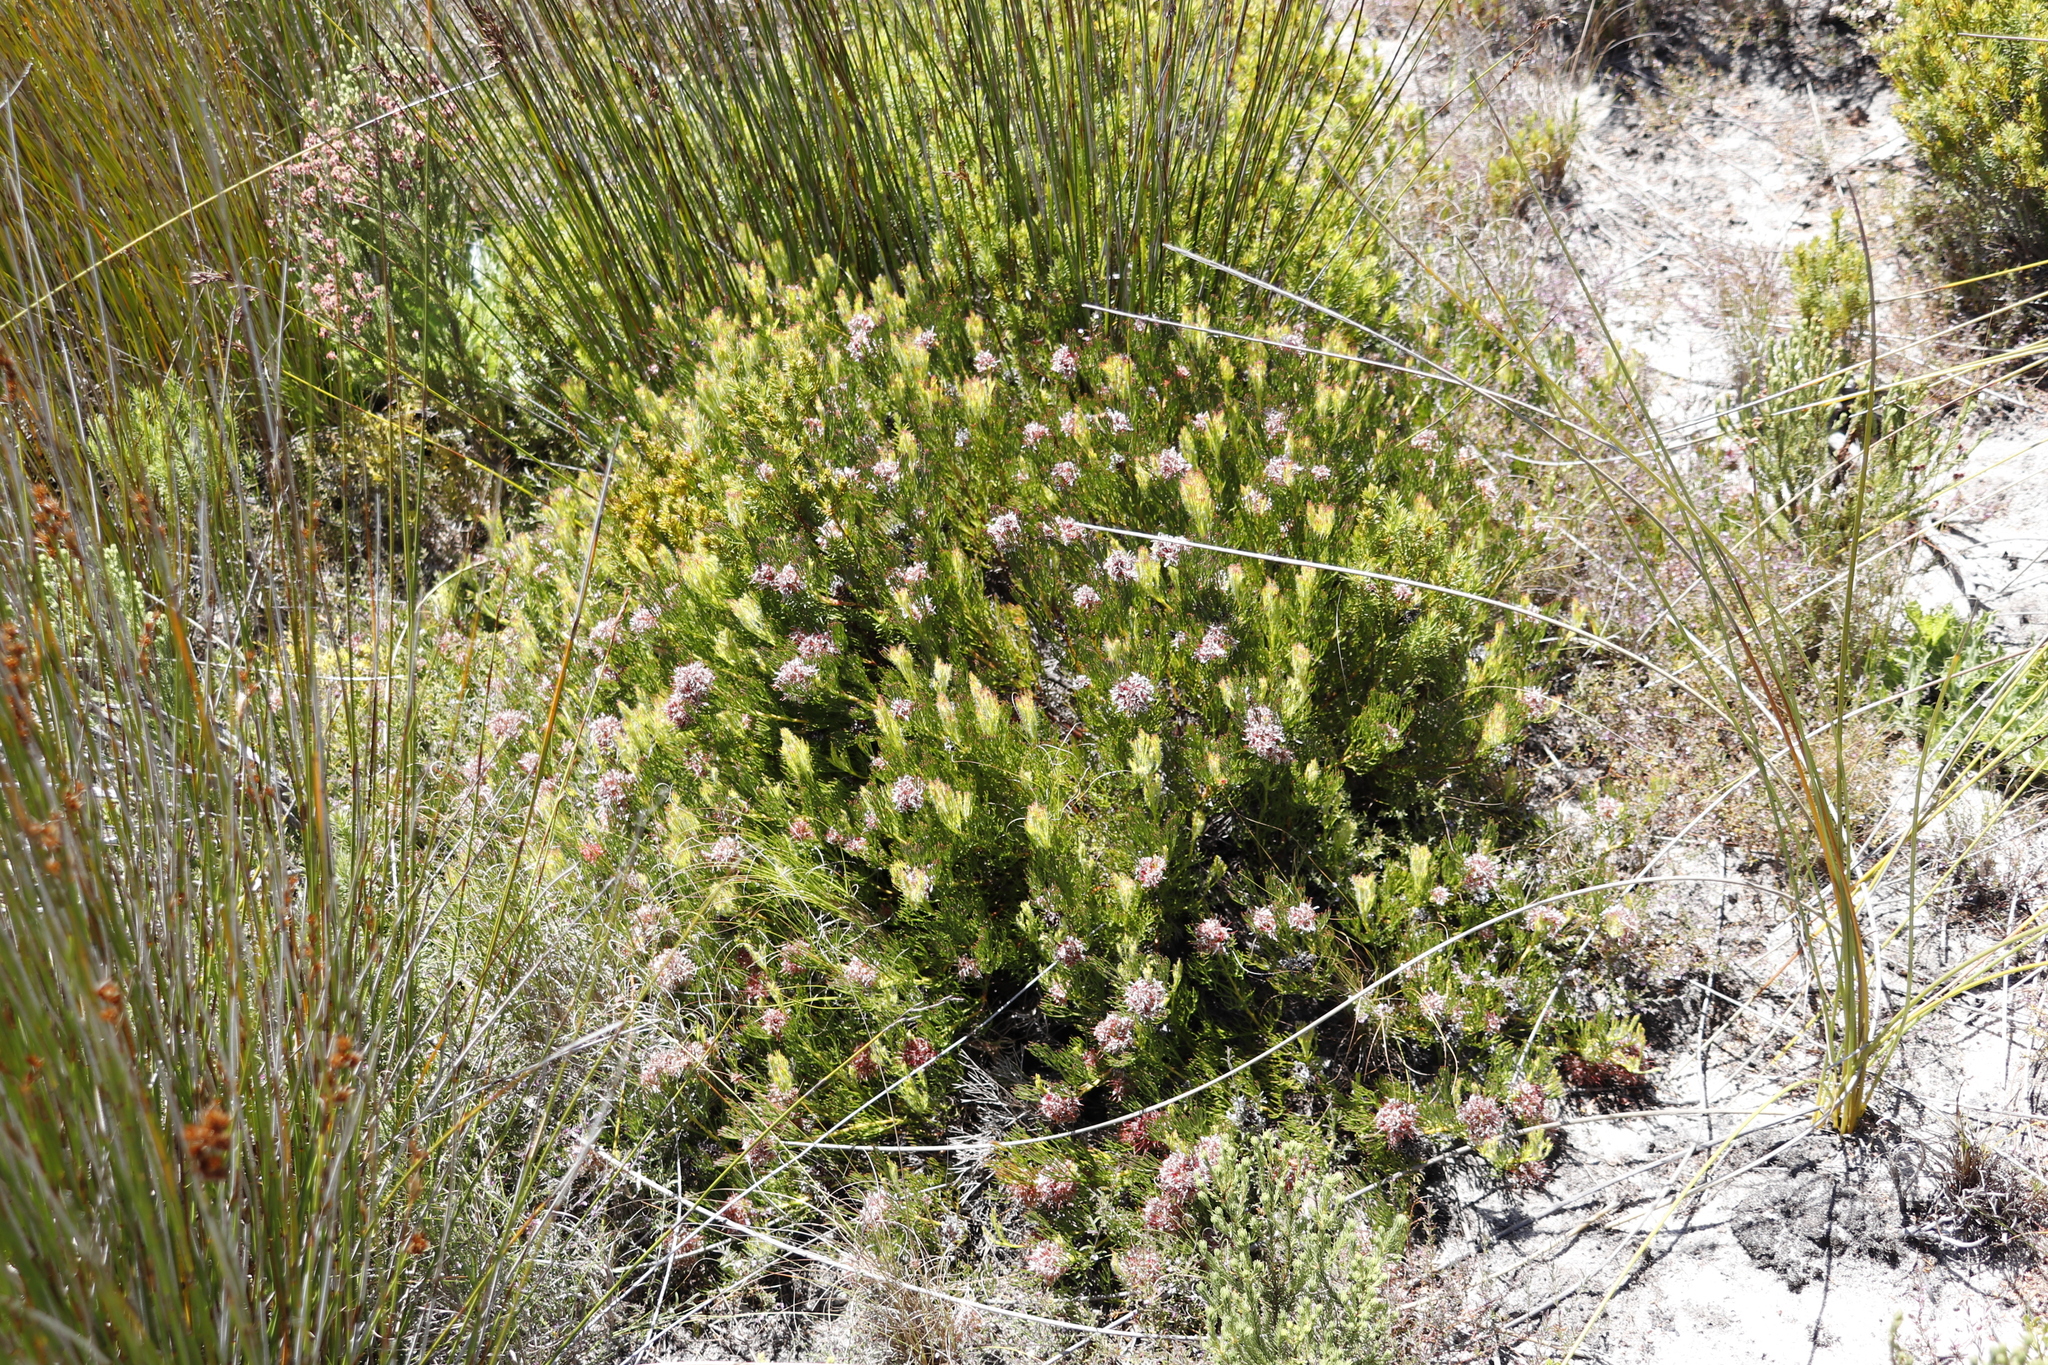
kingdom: Plantae
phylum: Tracheophyta
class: Magnoliopsida
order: Proteales
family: Proteaceae
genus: Serruria
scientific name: Serruria collina
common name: Lost spiderhead
